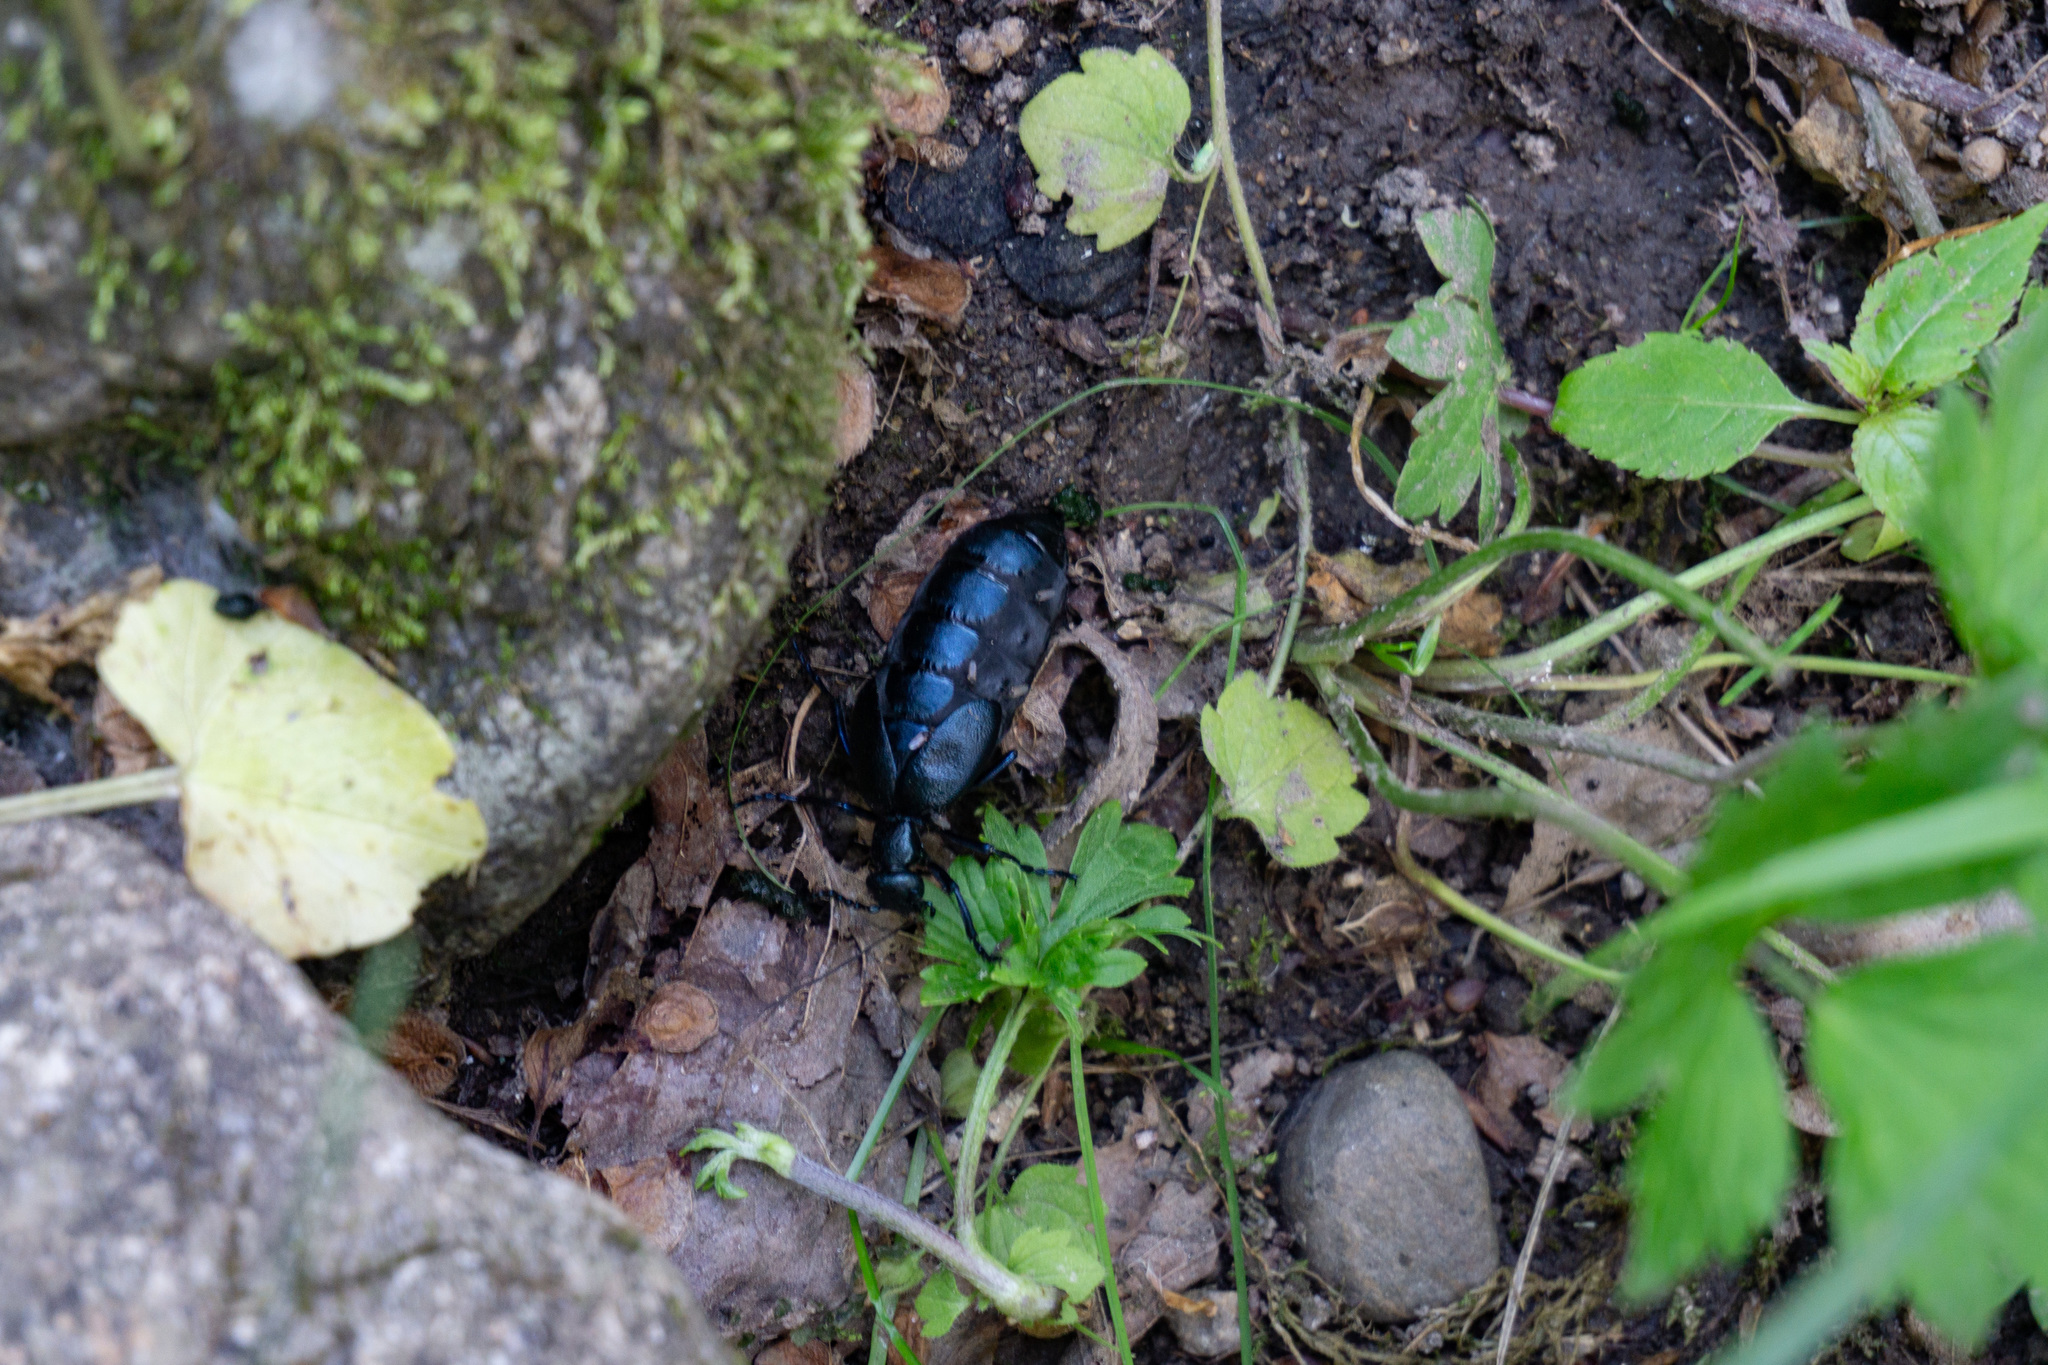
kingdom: Animalia
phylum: Arthropoda
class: Insecta
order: Coleoptera
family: Meloidae
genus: Meloe
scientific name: Meloe violaceus
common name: Violet oil-beetle
